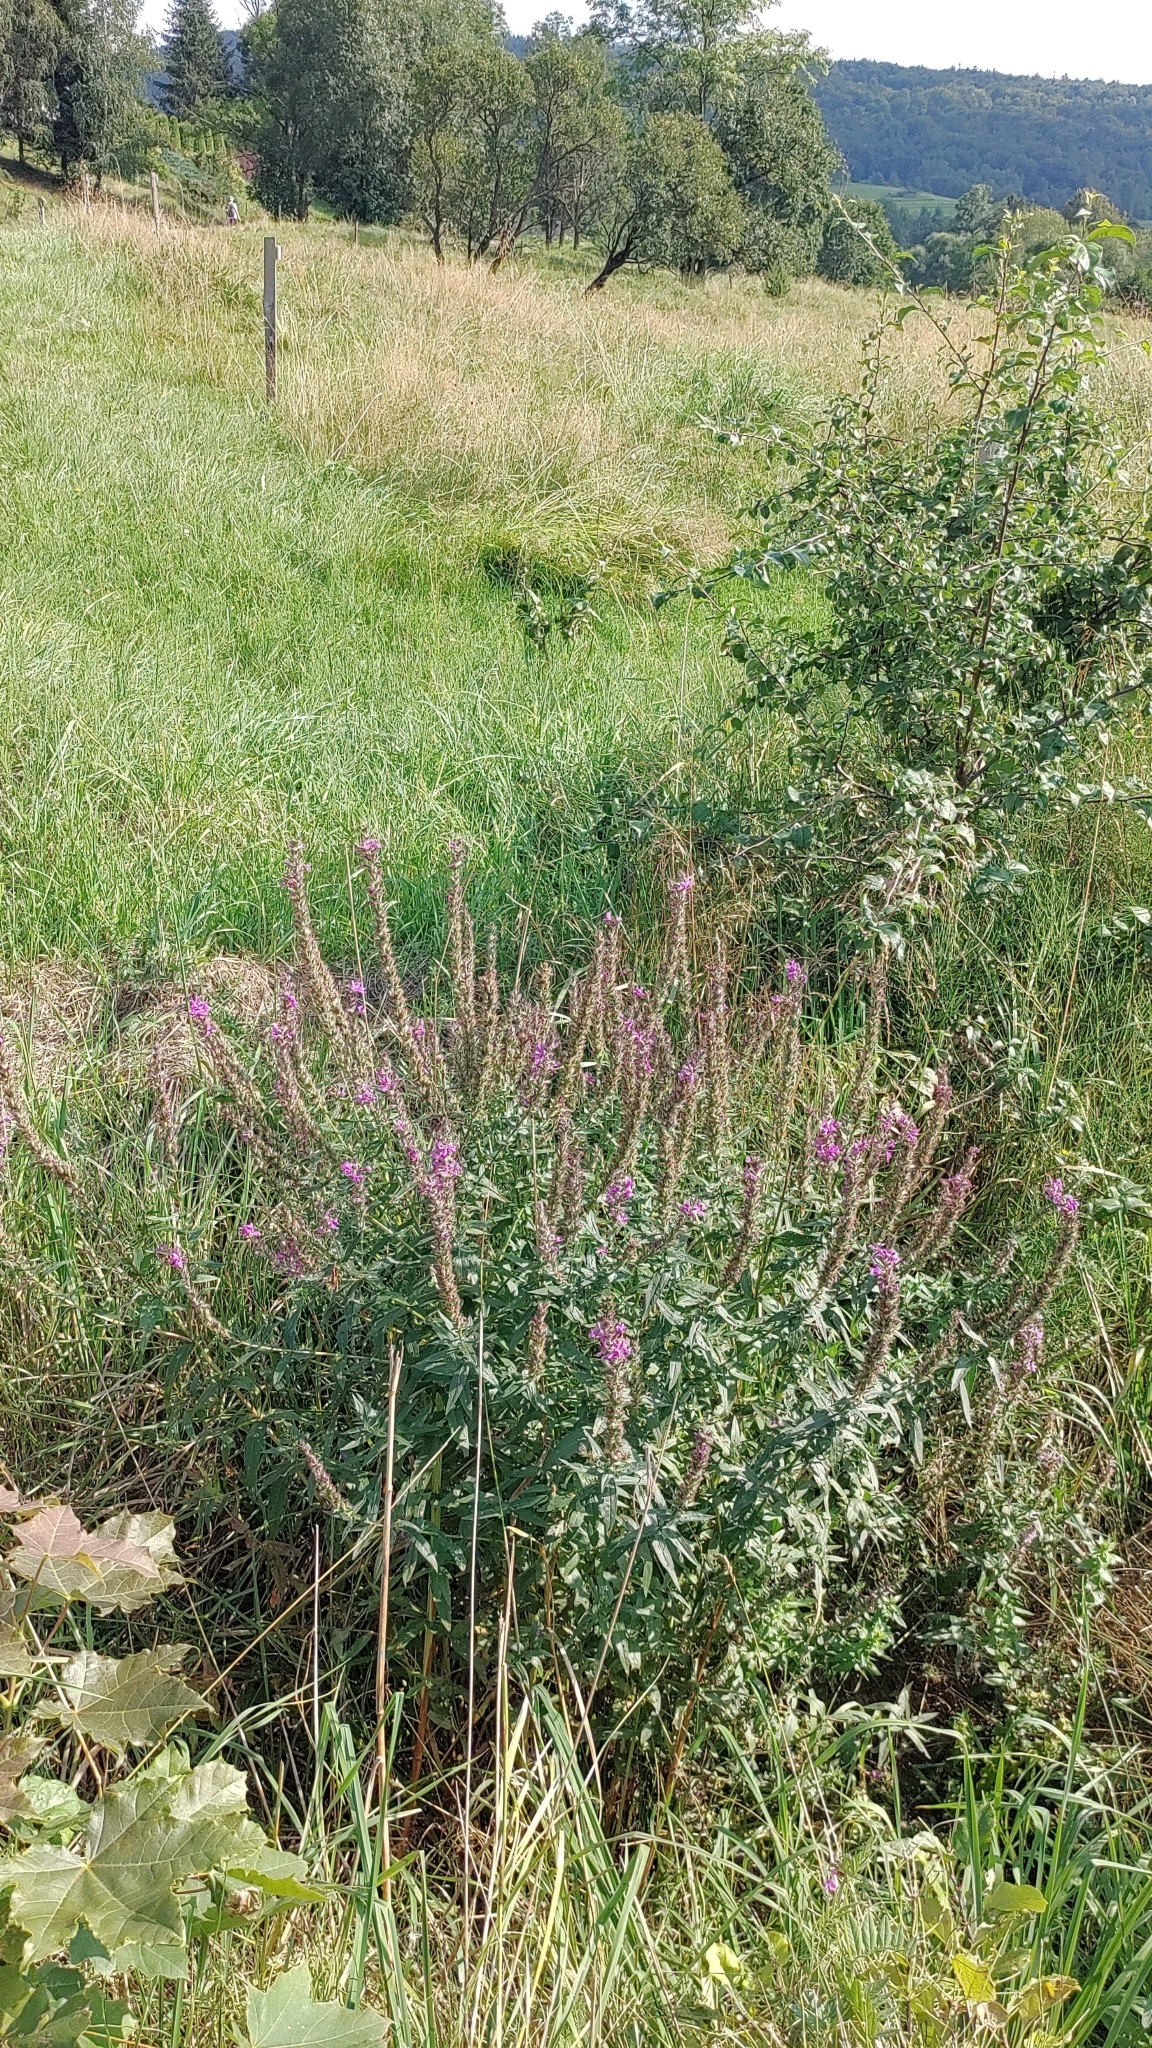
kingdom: Plantae
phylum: Tracheophyta
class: Magnoliopsida
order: Myrtales
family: Lythraceae
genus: Lythrum
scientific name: Lythrum salicaria
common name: Purple loosestrife
